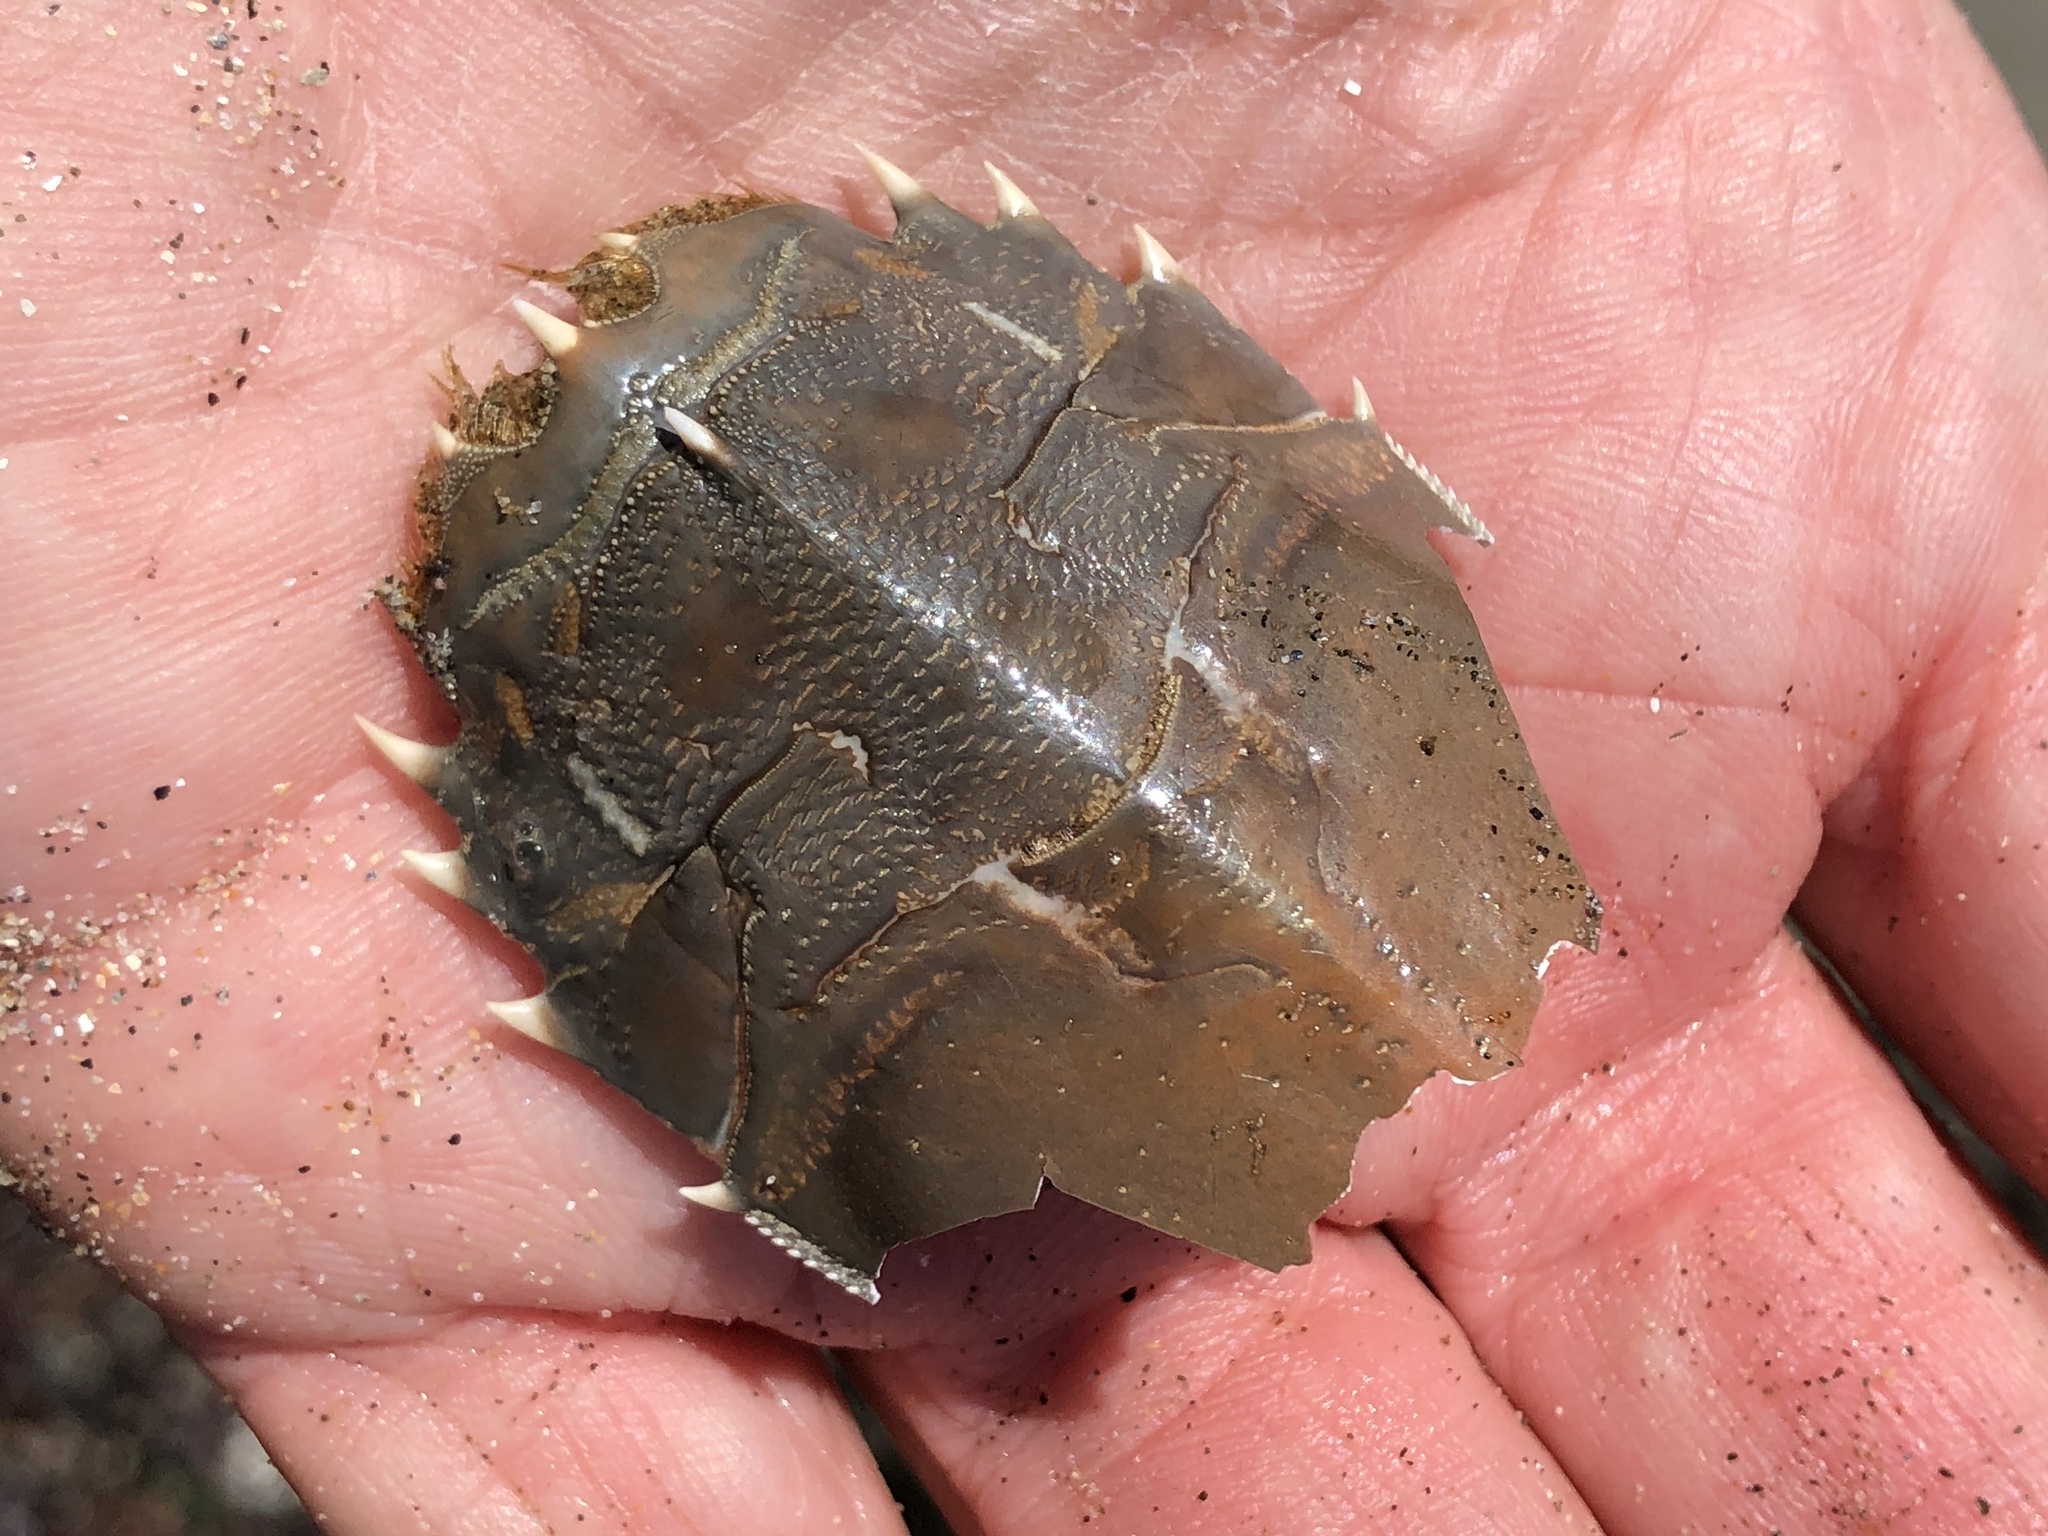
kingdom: Animalia
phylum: Arthropoda
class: Malacostraca
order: Decapoda
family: Blepharipodidae
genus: Blepharipoda
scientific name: Blepharipoda occidentalis
